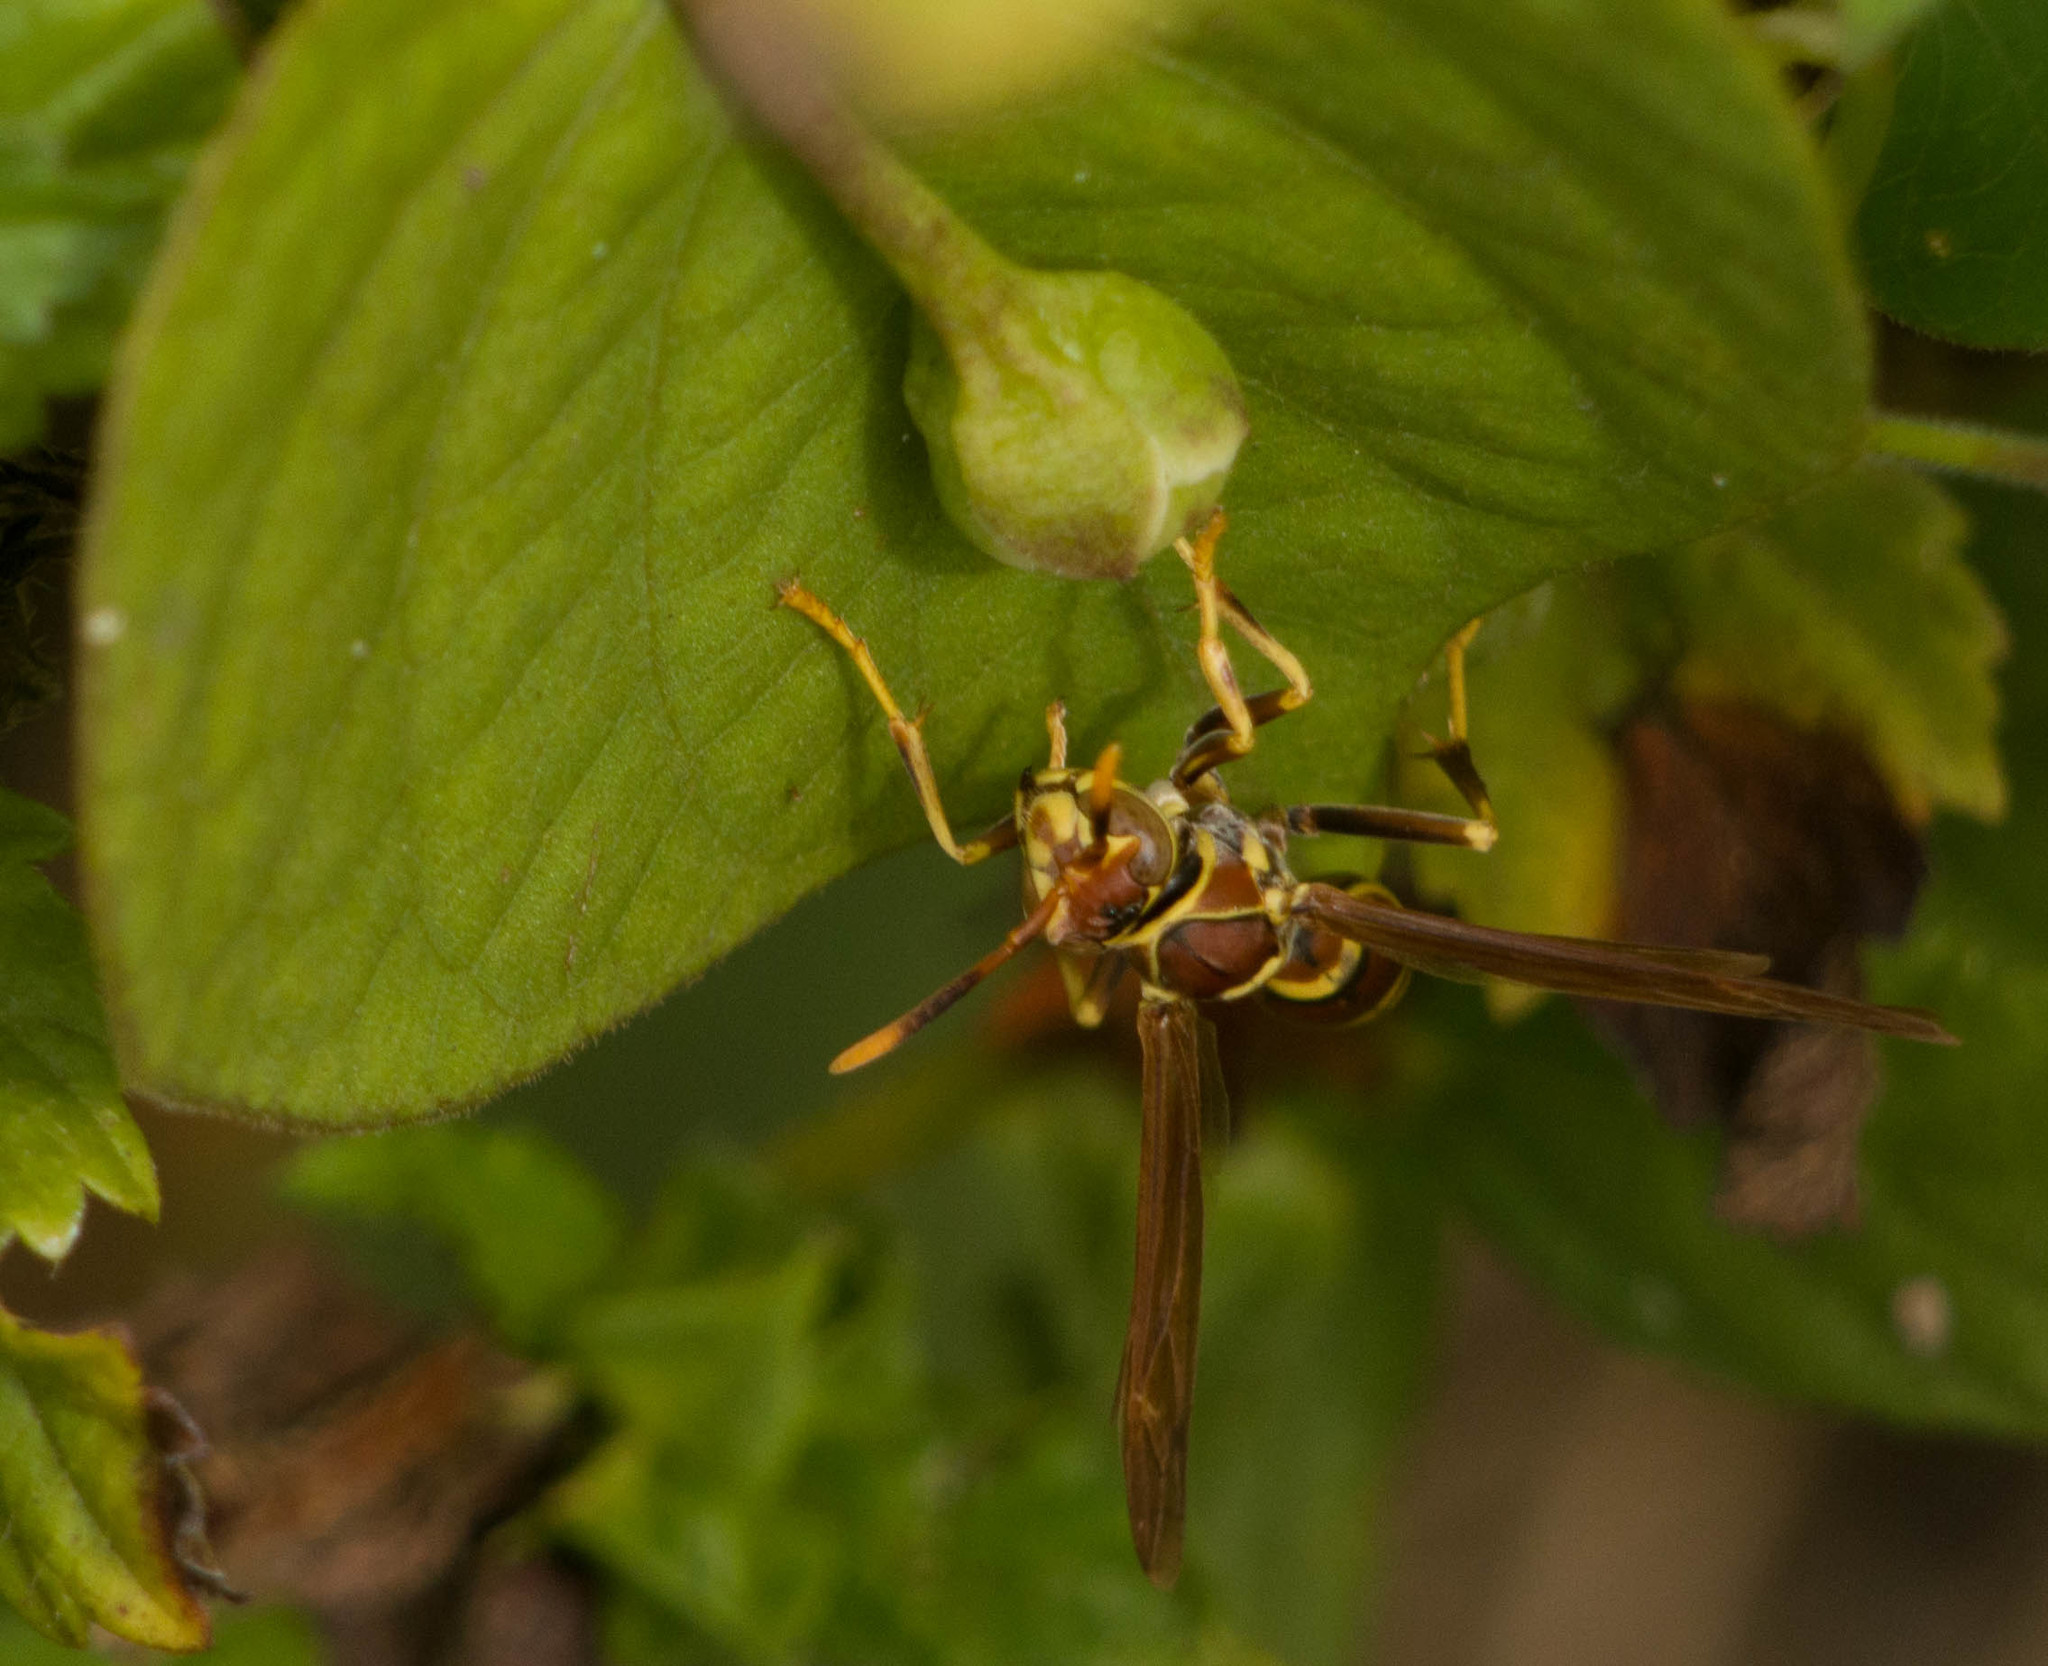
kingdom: Animalia
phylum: Arthropoda
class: Insecta
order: Hymenoptera
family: Eumenidae
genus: Polistes
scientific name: Polistes exclamans
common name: Paper wasp
